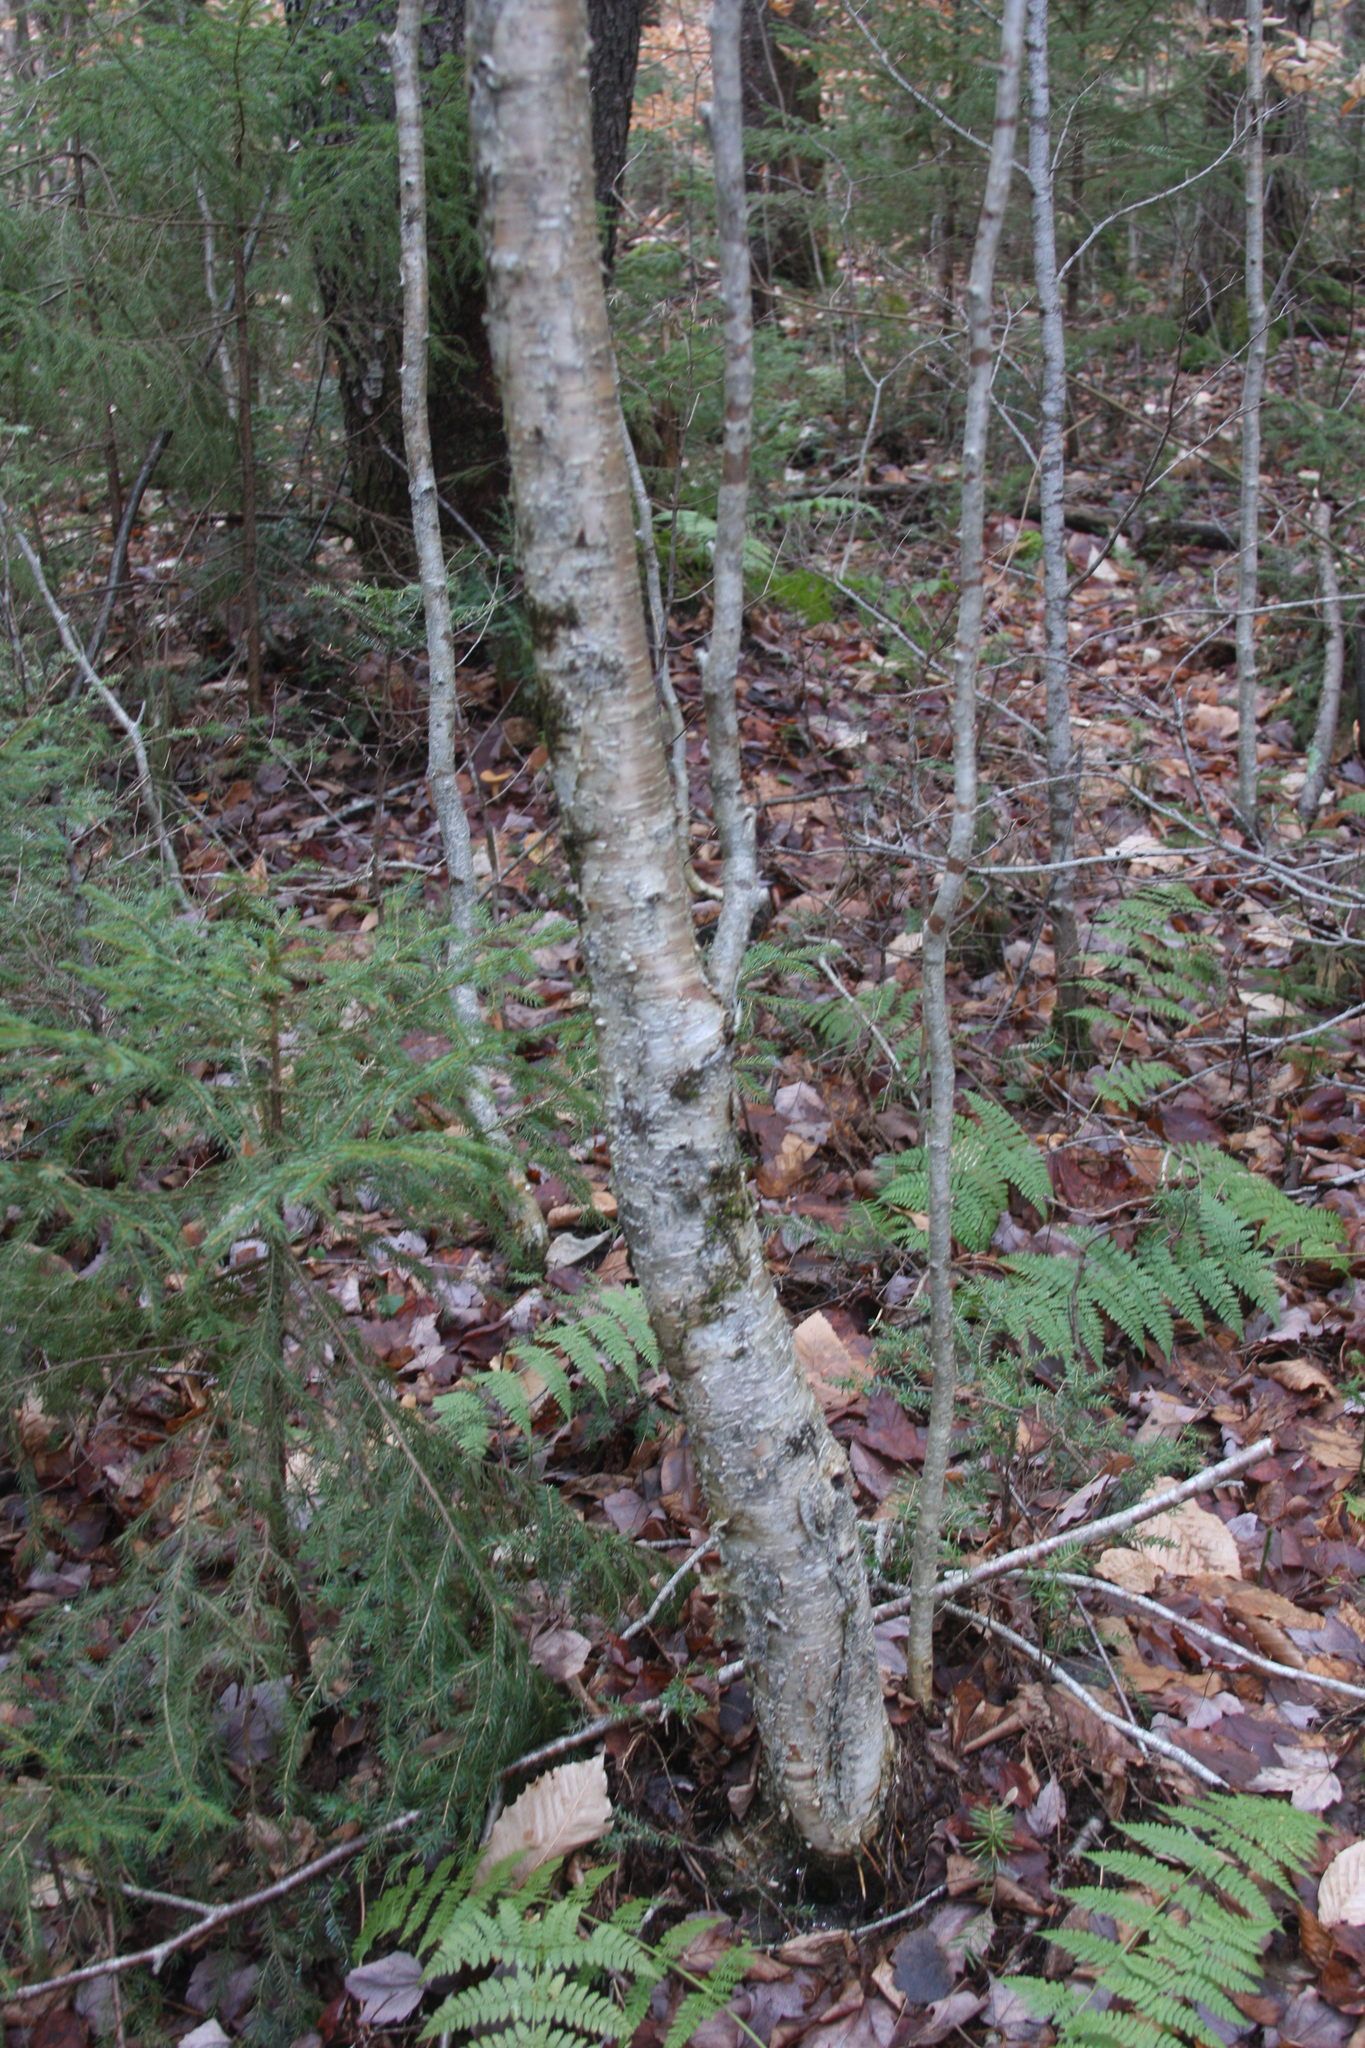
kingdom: Plantae
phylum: Tracheophyta
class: Magnoliopsida
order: Fagales
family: Betulaceae
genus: Betula
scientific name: Betula alleghaniensis
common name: Yellow birch
